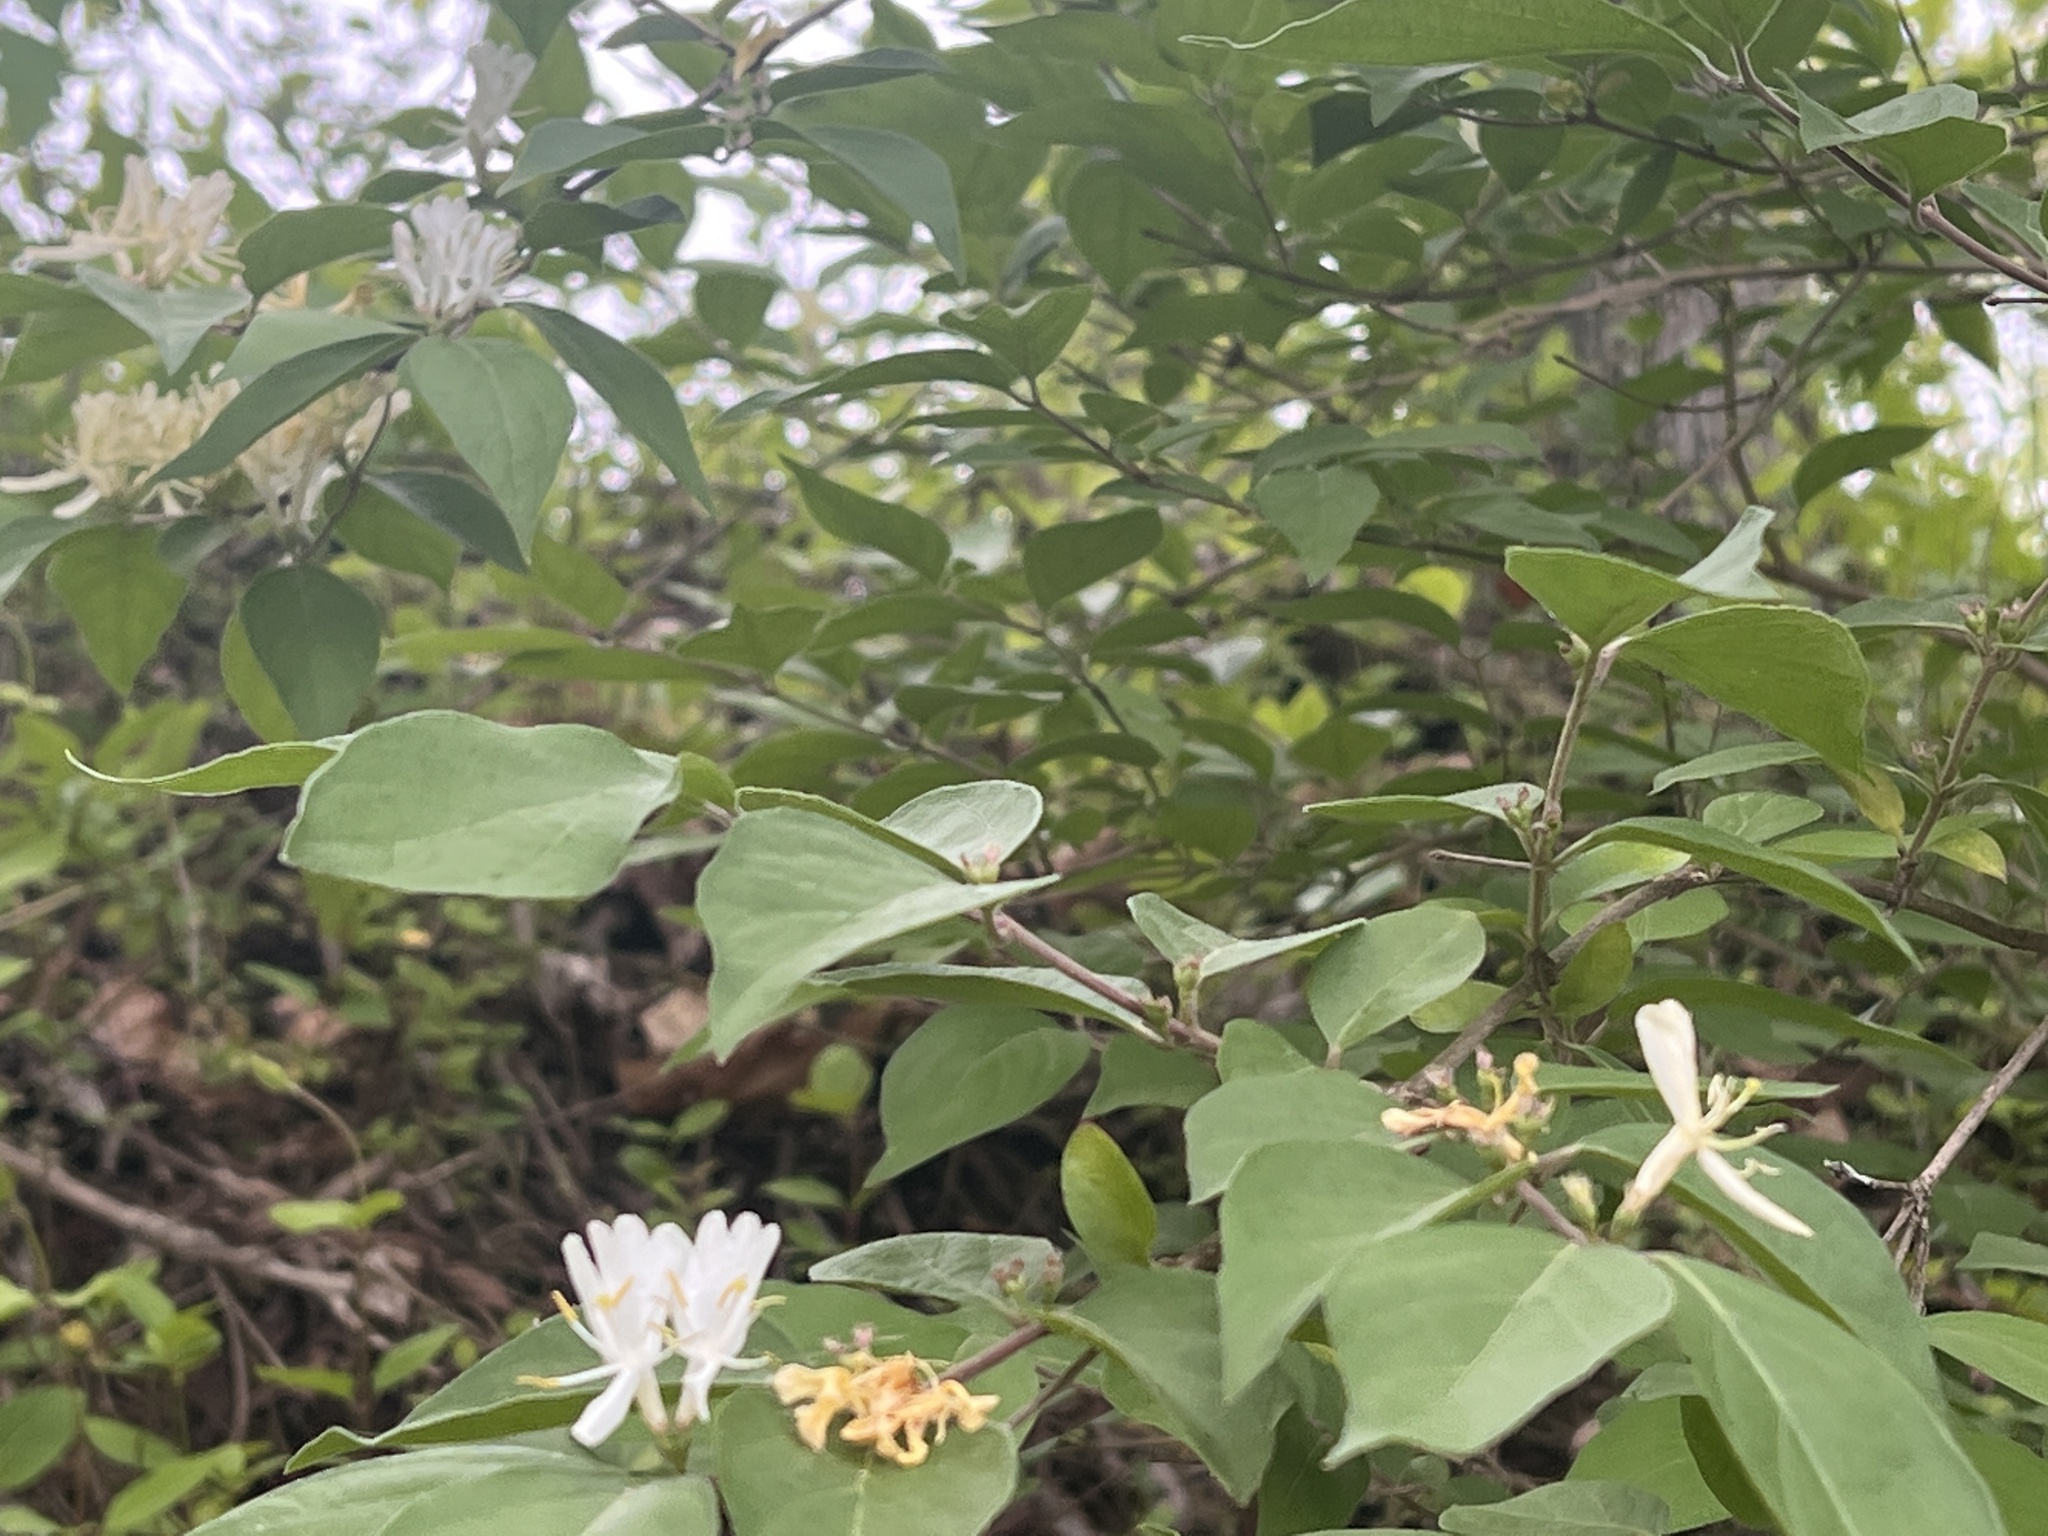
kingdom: Plantae
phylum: Tracheophyta
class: Magnoliopsida
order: Dipsacales
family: Caprifoliaceae
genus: Lonicera
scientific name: Lonicera maackii
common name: Amur honeysuckle
